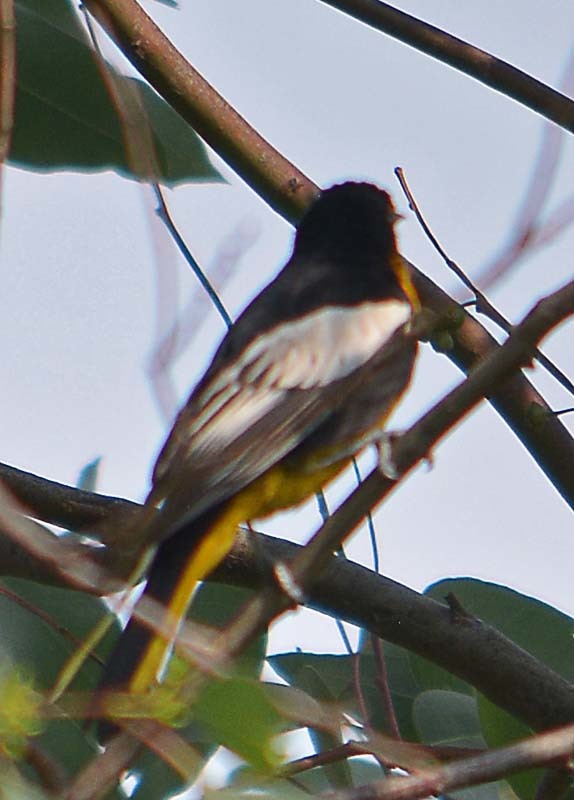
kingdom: Animalia
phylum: Chordata
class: Aves
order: Passeriformes
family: Icteridae
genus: Icterus
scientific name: Icterus abeillei
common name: Black-backed oriole
